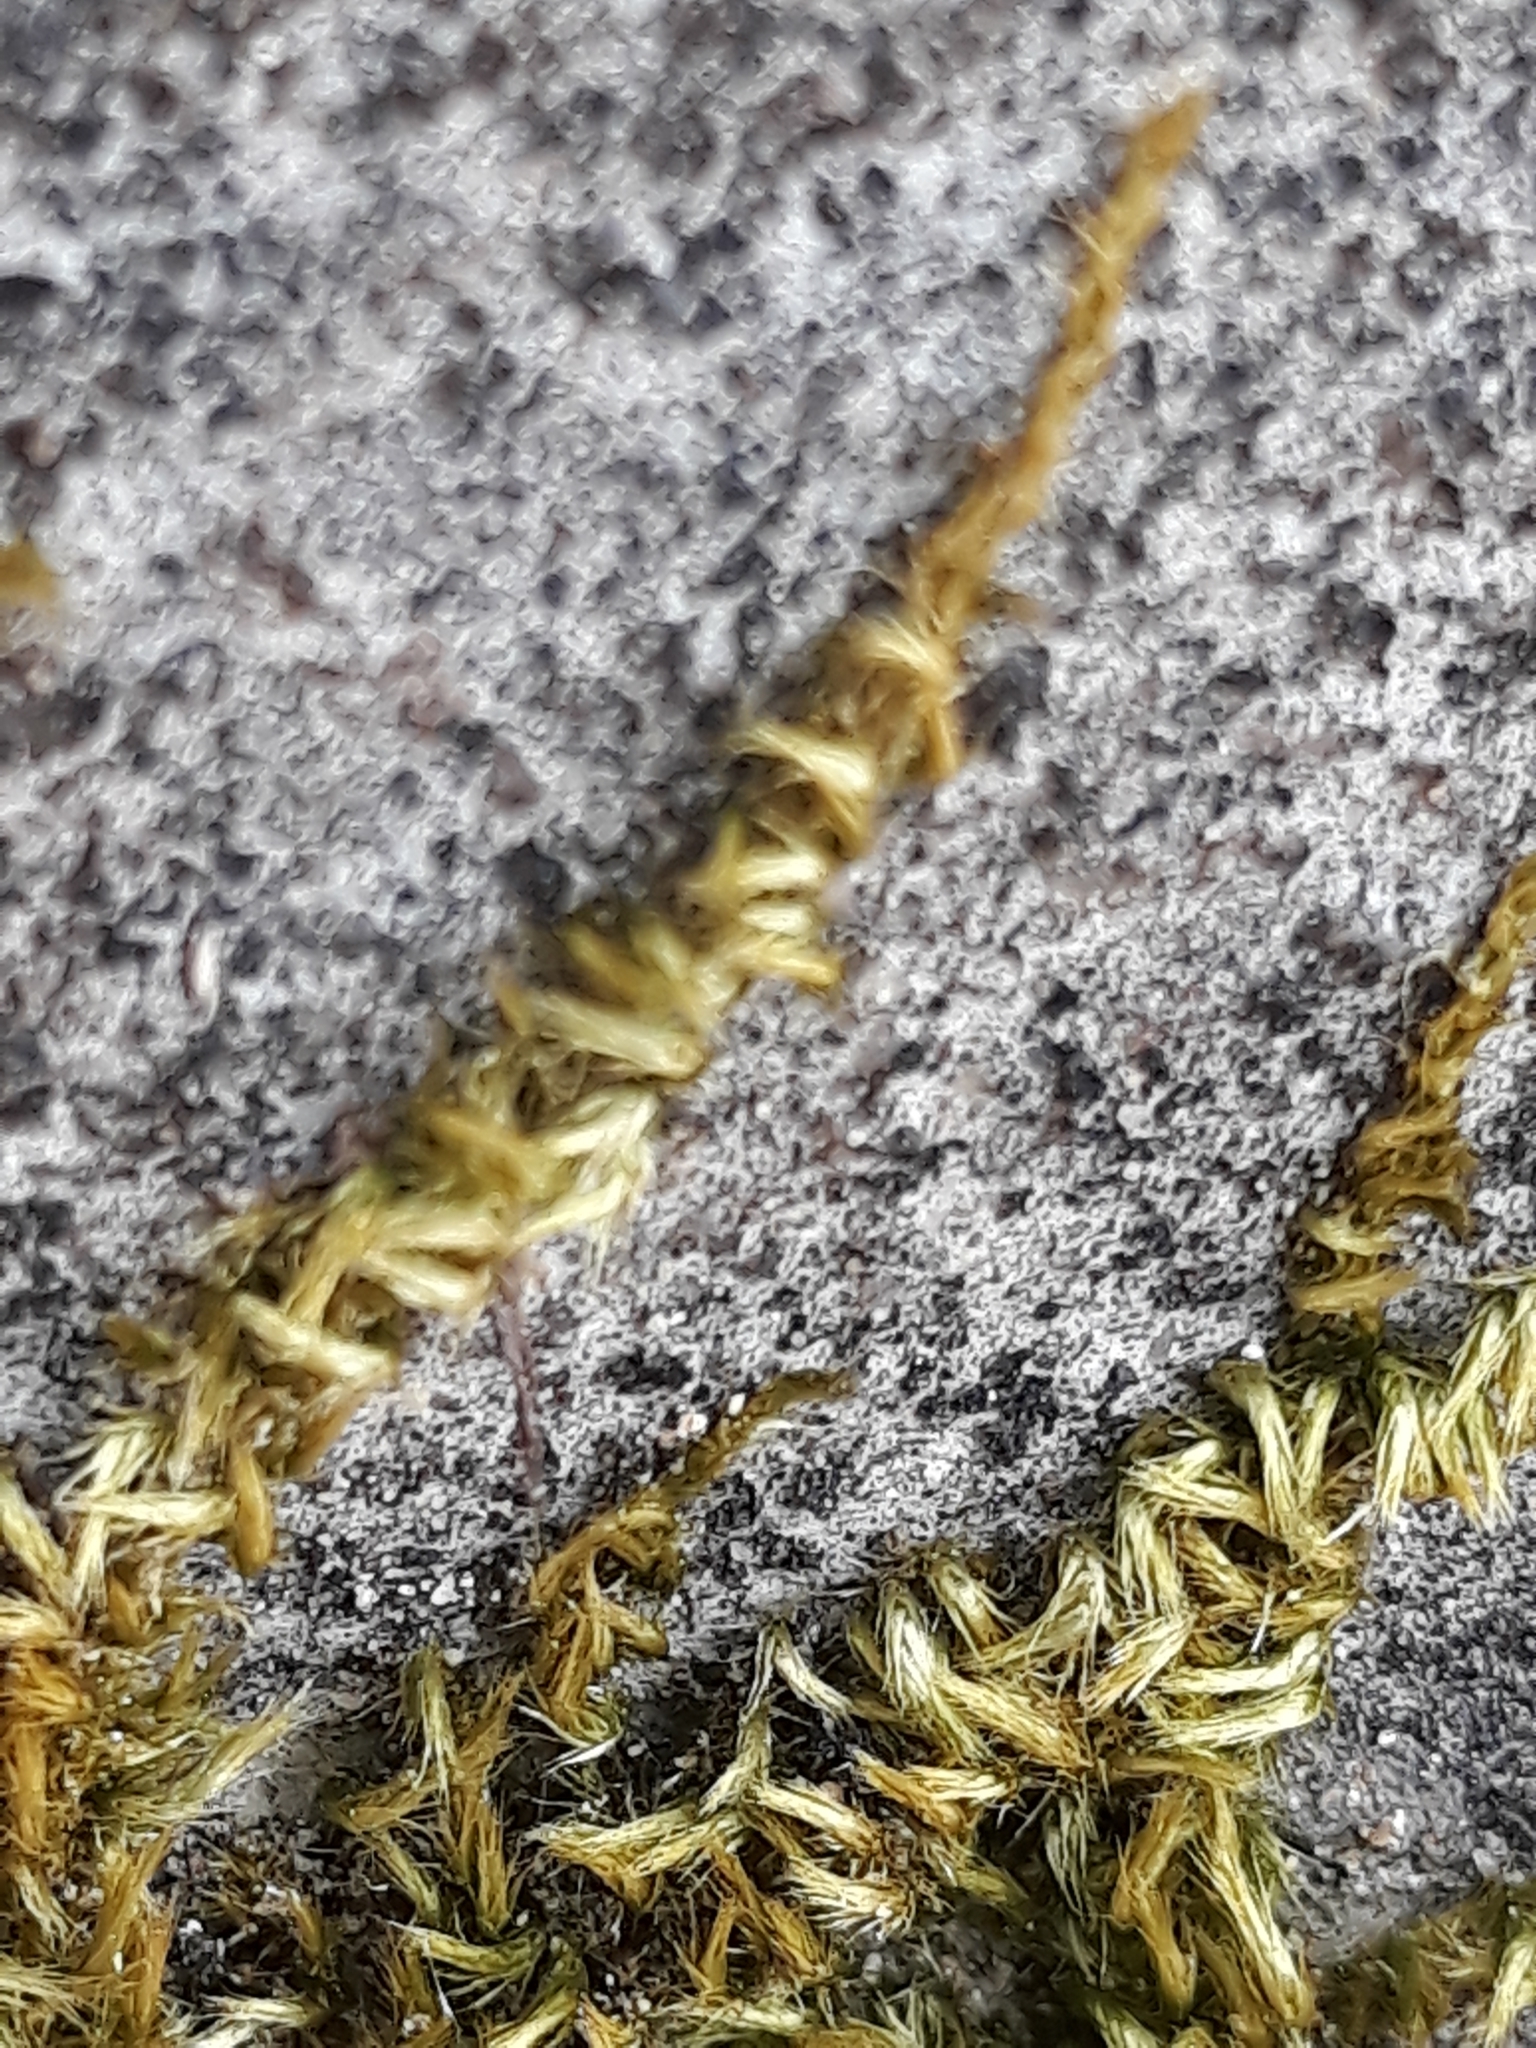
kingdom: Plantae
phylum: Bryophyta
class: Bryopsida
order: Hypnales
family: Brachytheciaceae
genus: Homalothecium
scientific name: Homalothecium sericeum
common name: Silky wall feather-moss
